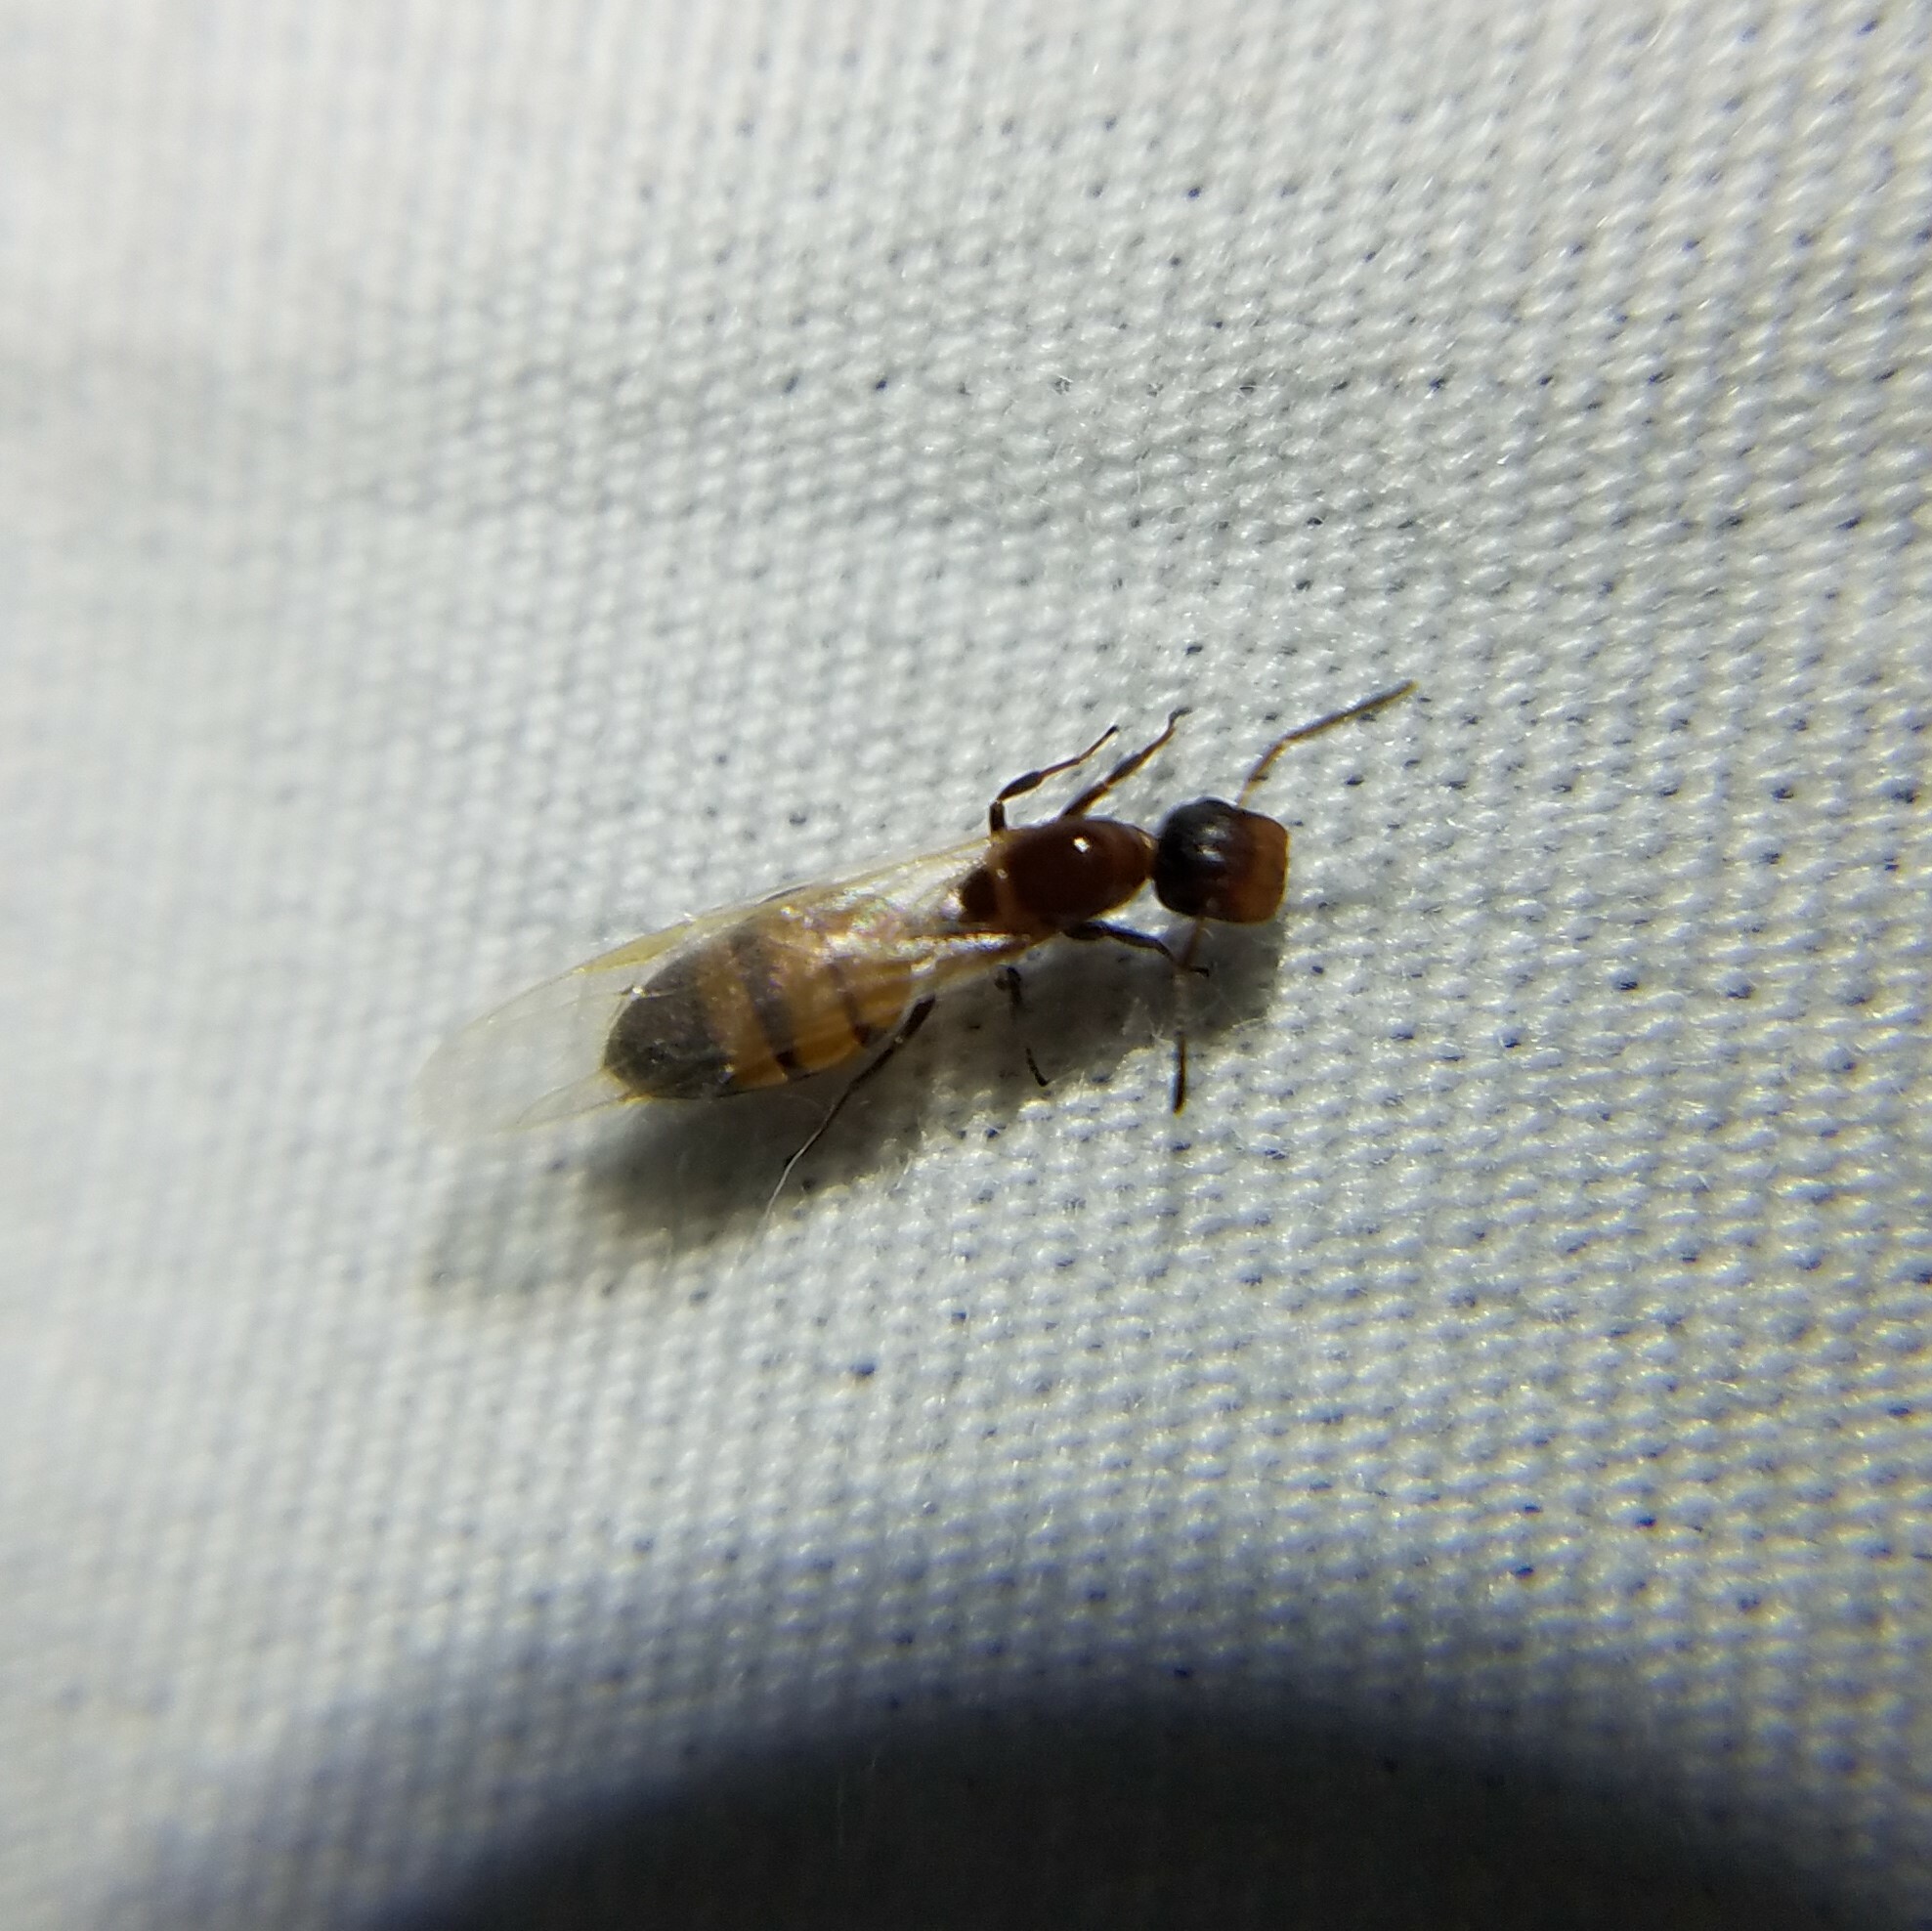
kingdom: Animalia
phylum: Arthropoda
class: Insecta
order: Hymenoptera
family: Formicidae
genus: Colobopsis
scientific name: Colobopsis impressa
